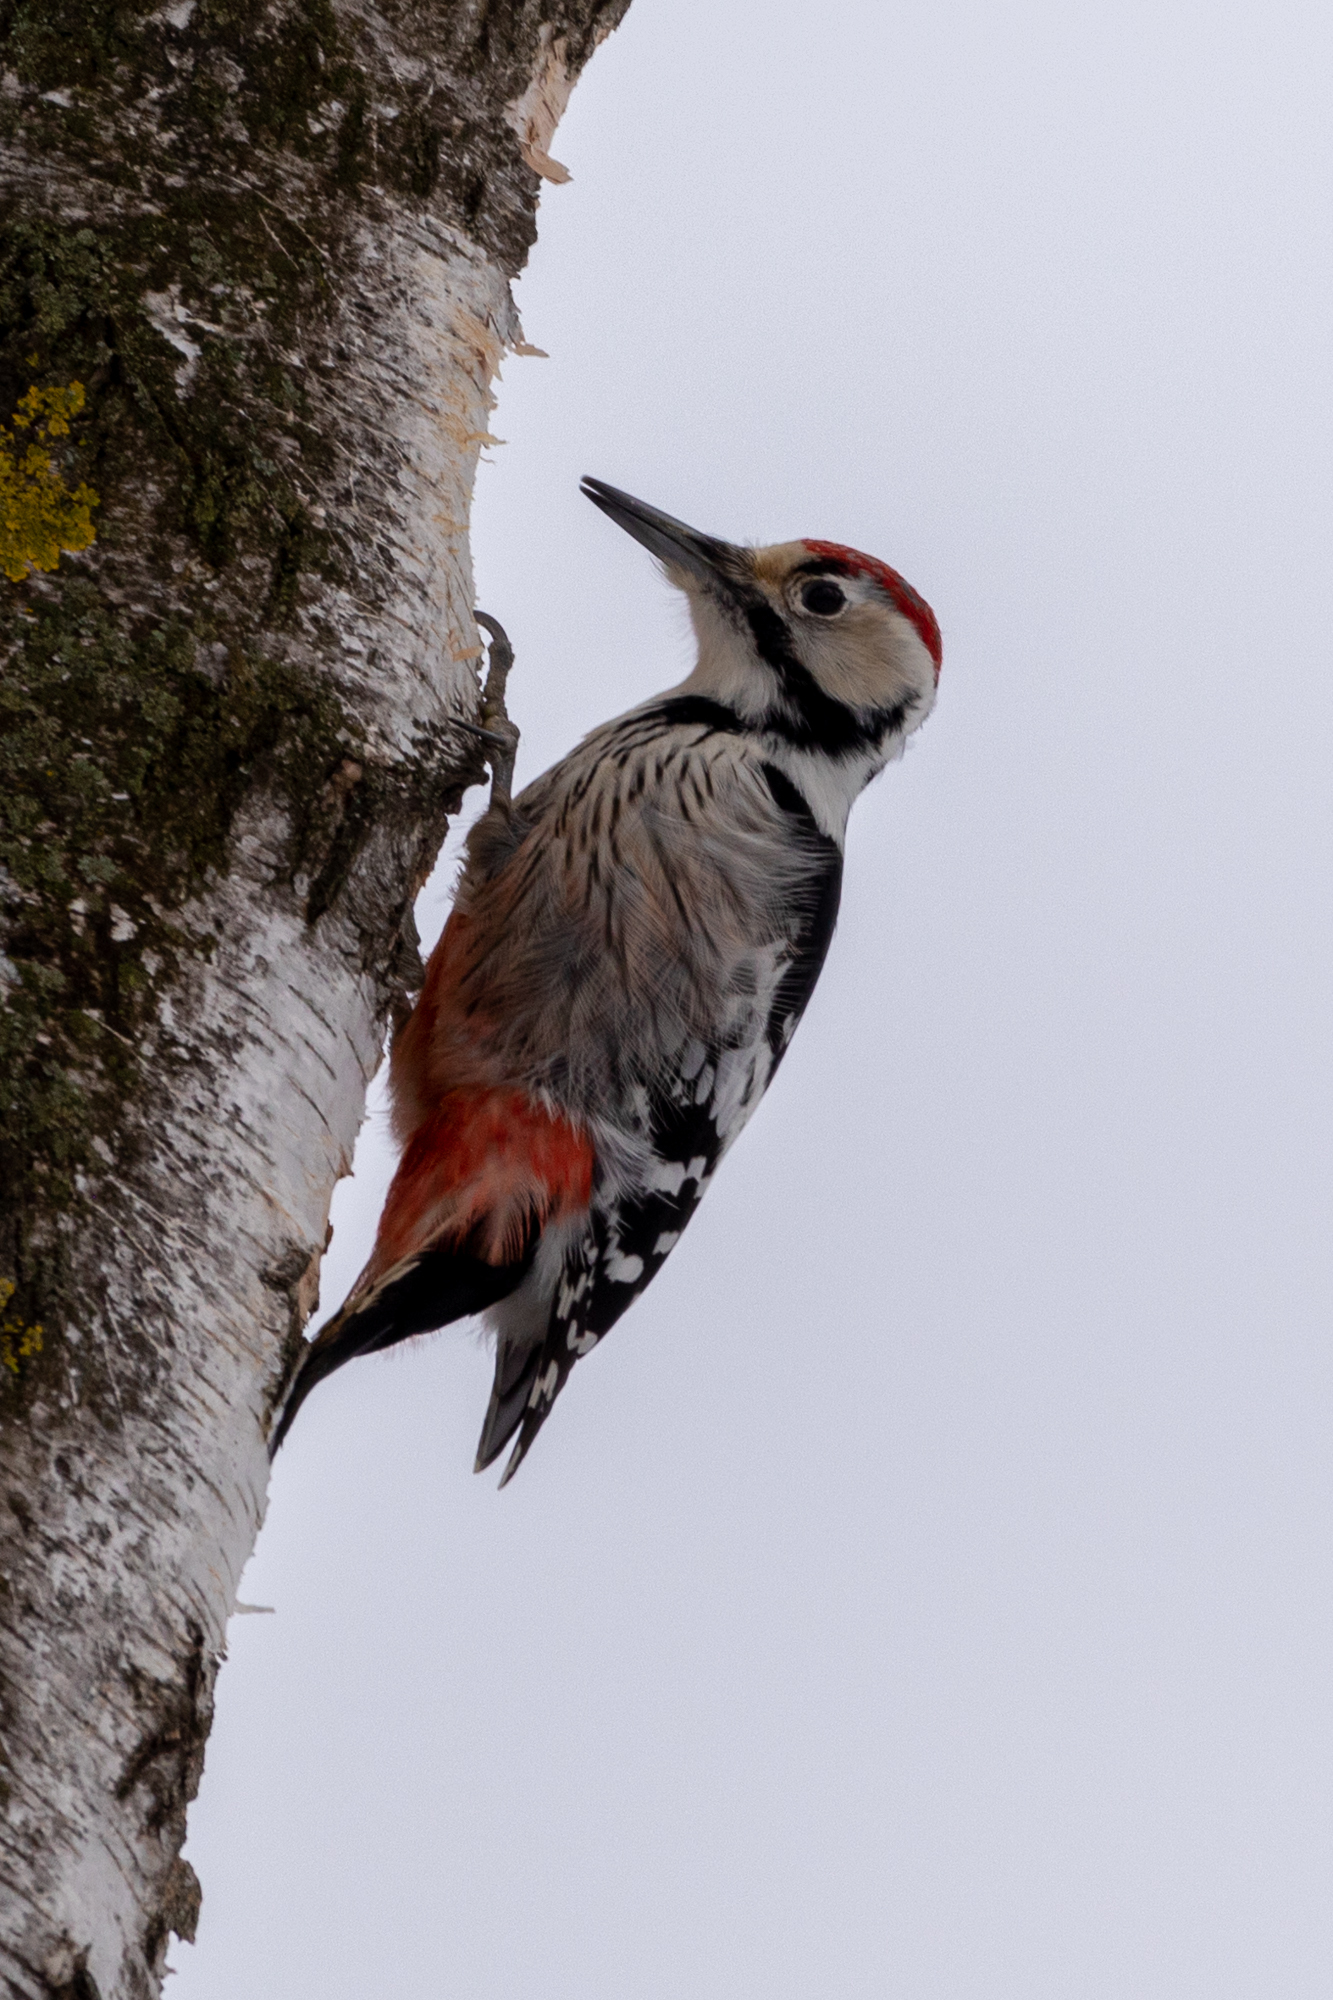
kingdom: Animalia
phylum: Chordata
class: Aves
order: Piciformes
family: Picidae
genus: Dendrocopos
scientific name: Dendrocopos leucotos
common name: White-backed woodpecker
